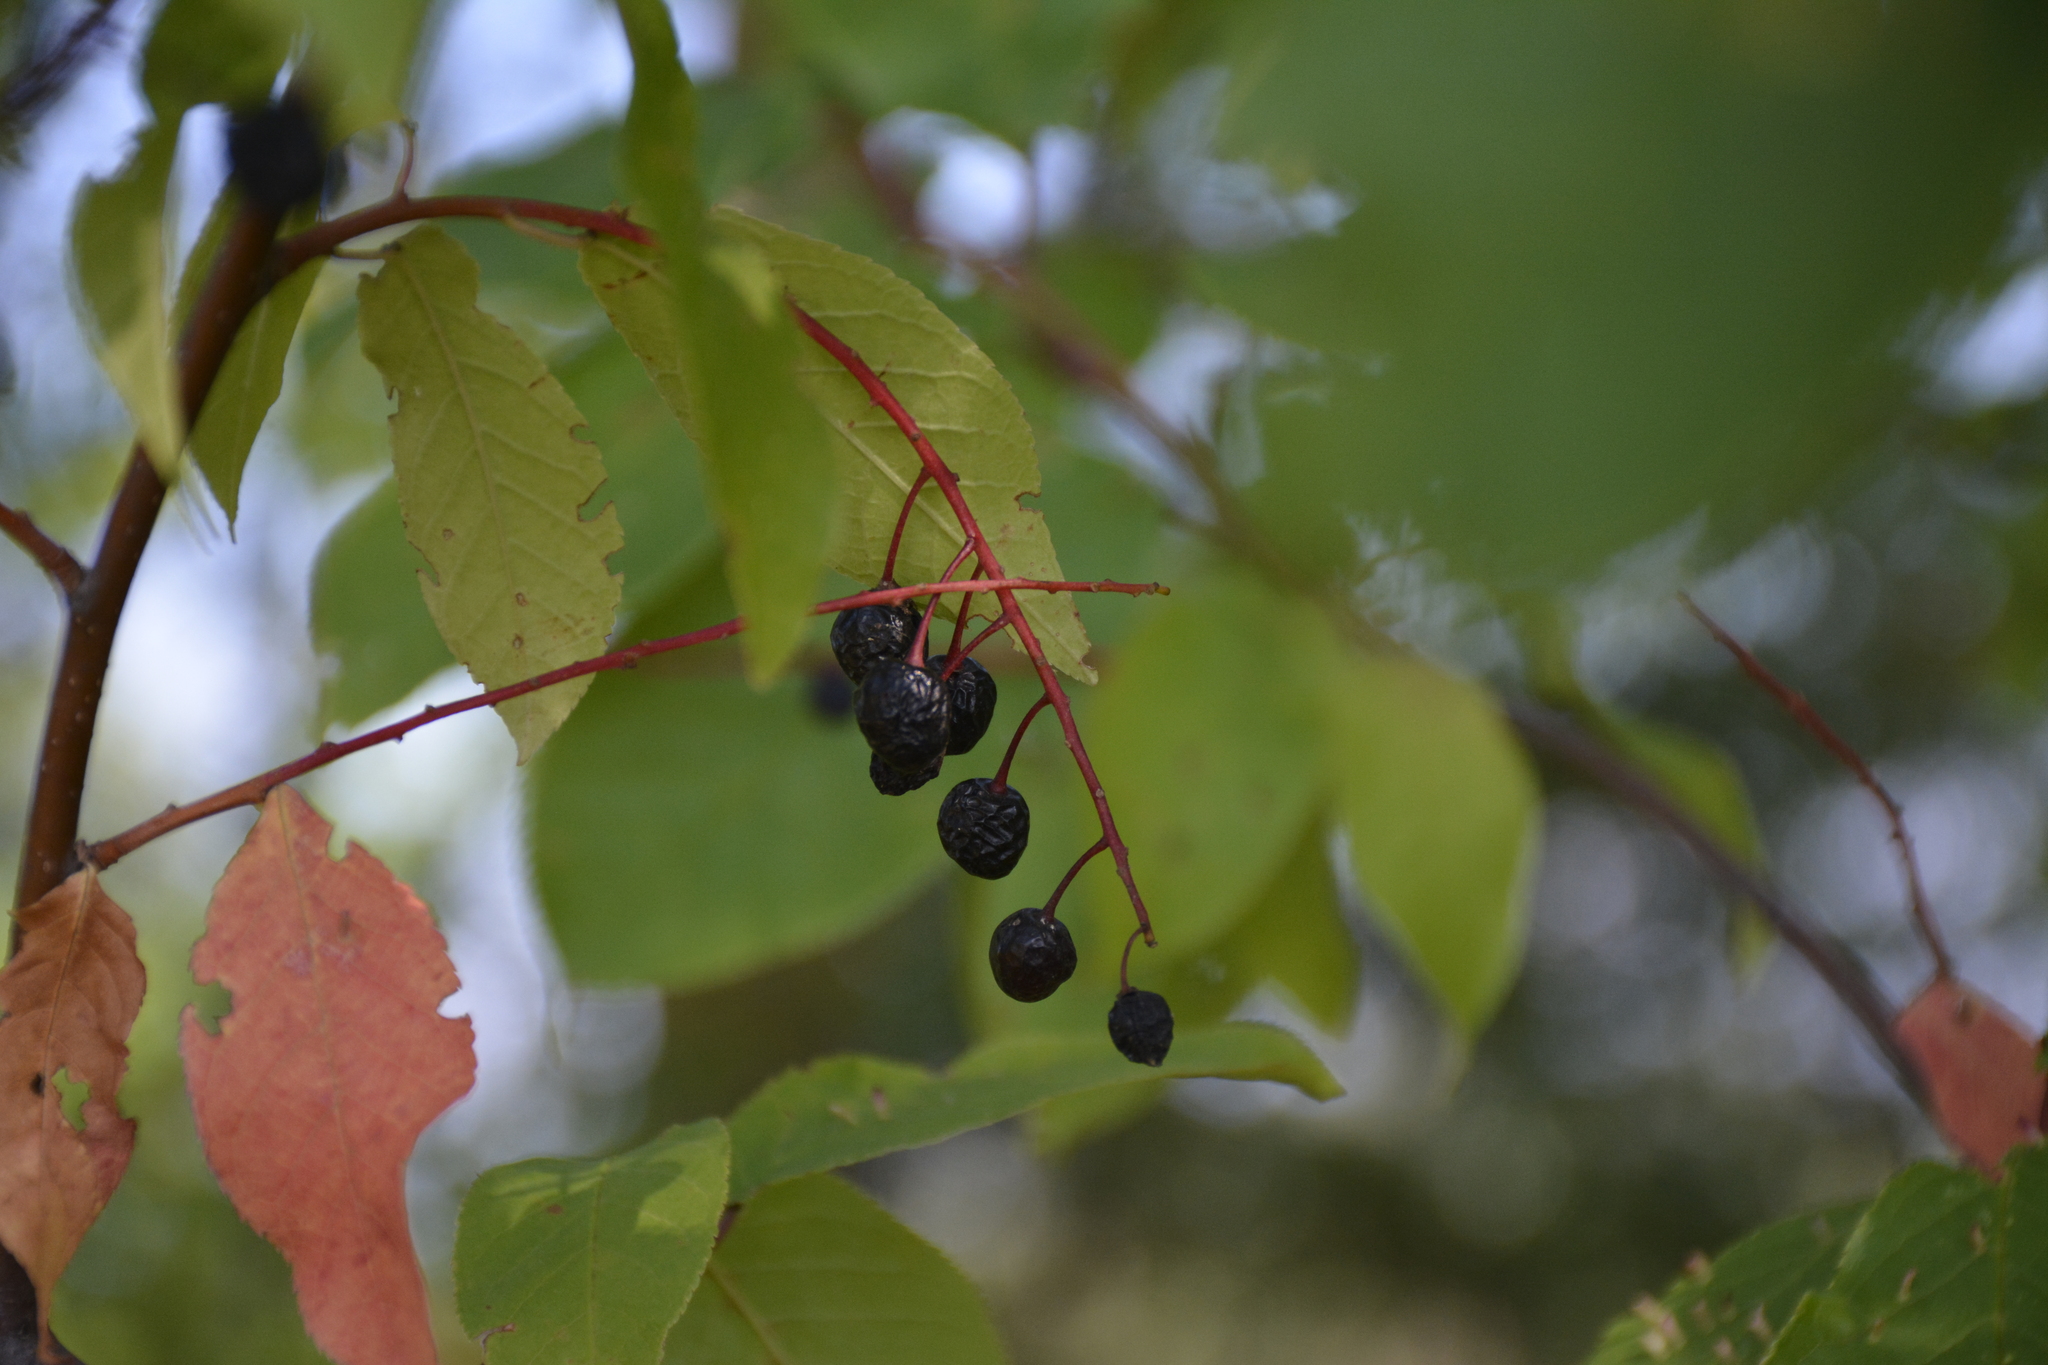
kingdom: Plantae
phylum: Tracheophyta
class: Magnoliopsida
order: Rosales
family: Rosaceae
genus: Prunus
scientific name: Prunus padus
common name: Bird cherry
